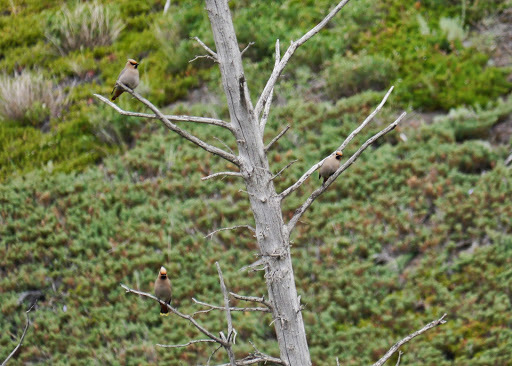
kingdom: Animalia
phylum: Chordata
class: Aves
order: Passeriformes
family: Bombycillidae
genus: Bombycilla
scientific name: Bombycilla garrulus
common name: Bohemian waxwing
